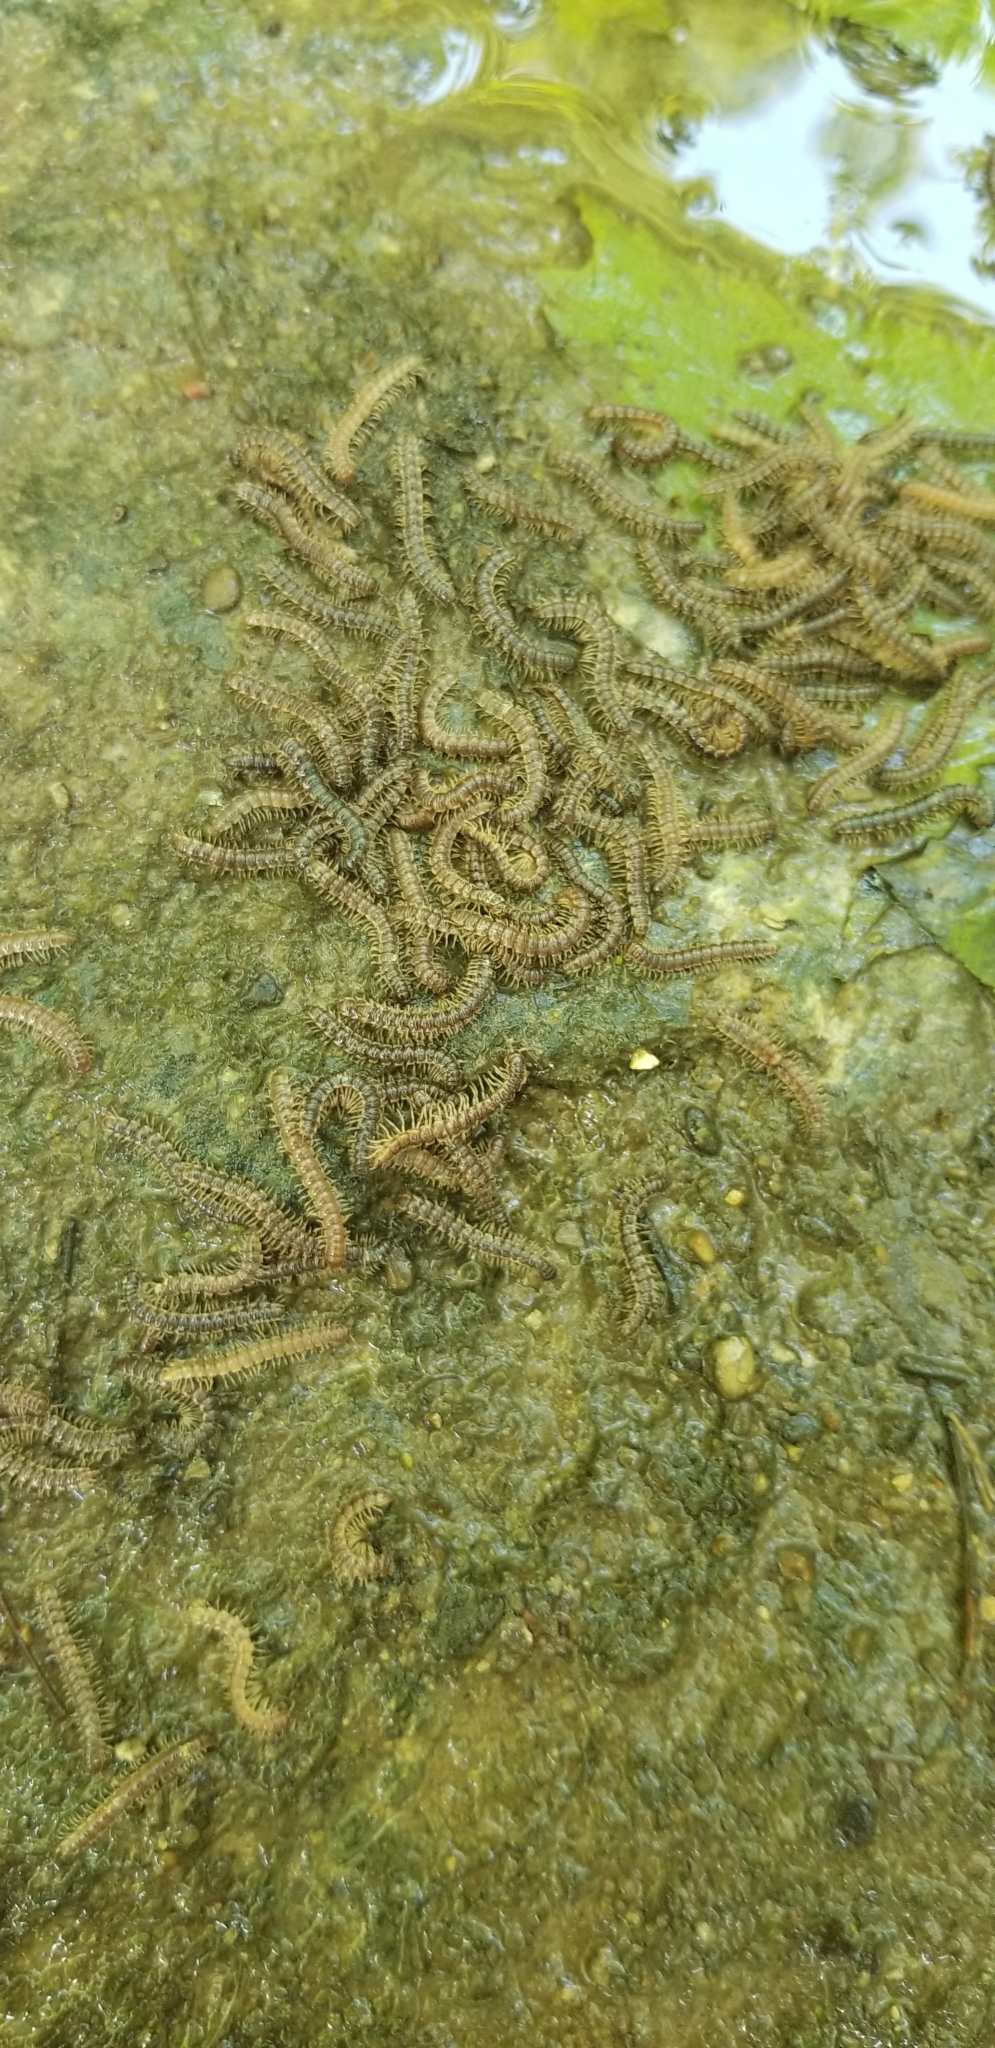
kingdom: Animalia
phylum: Arthropoda
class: Diplopoda
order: Polydesmida
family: Paradoxosomatidae
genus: Oxidus
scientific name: Oxidus gracilis
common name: Greenhouse millipede
